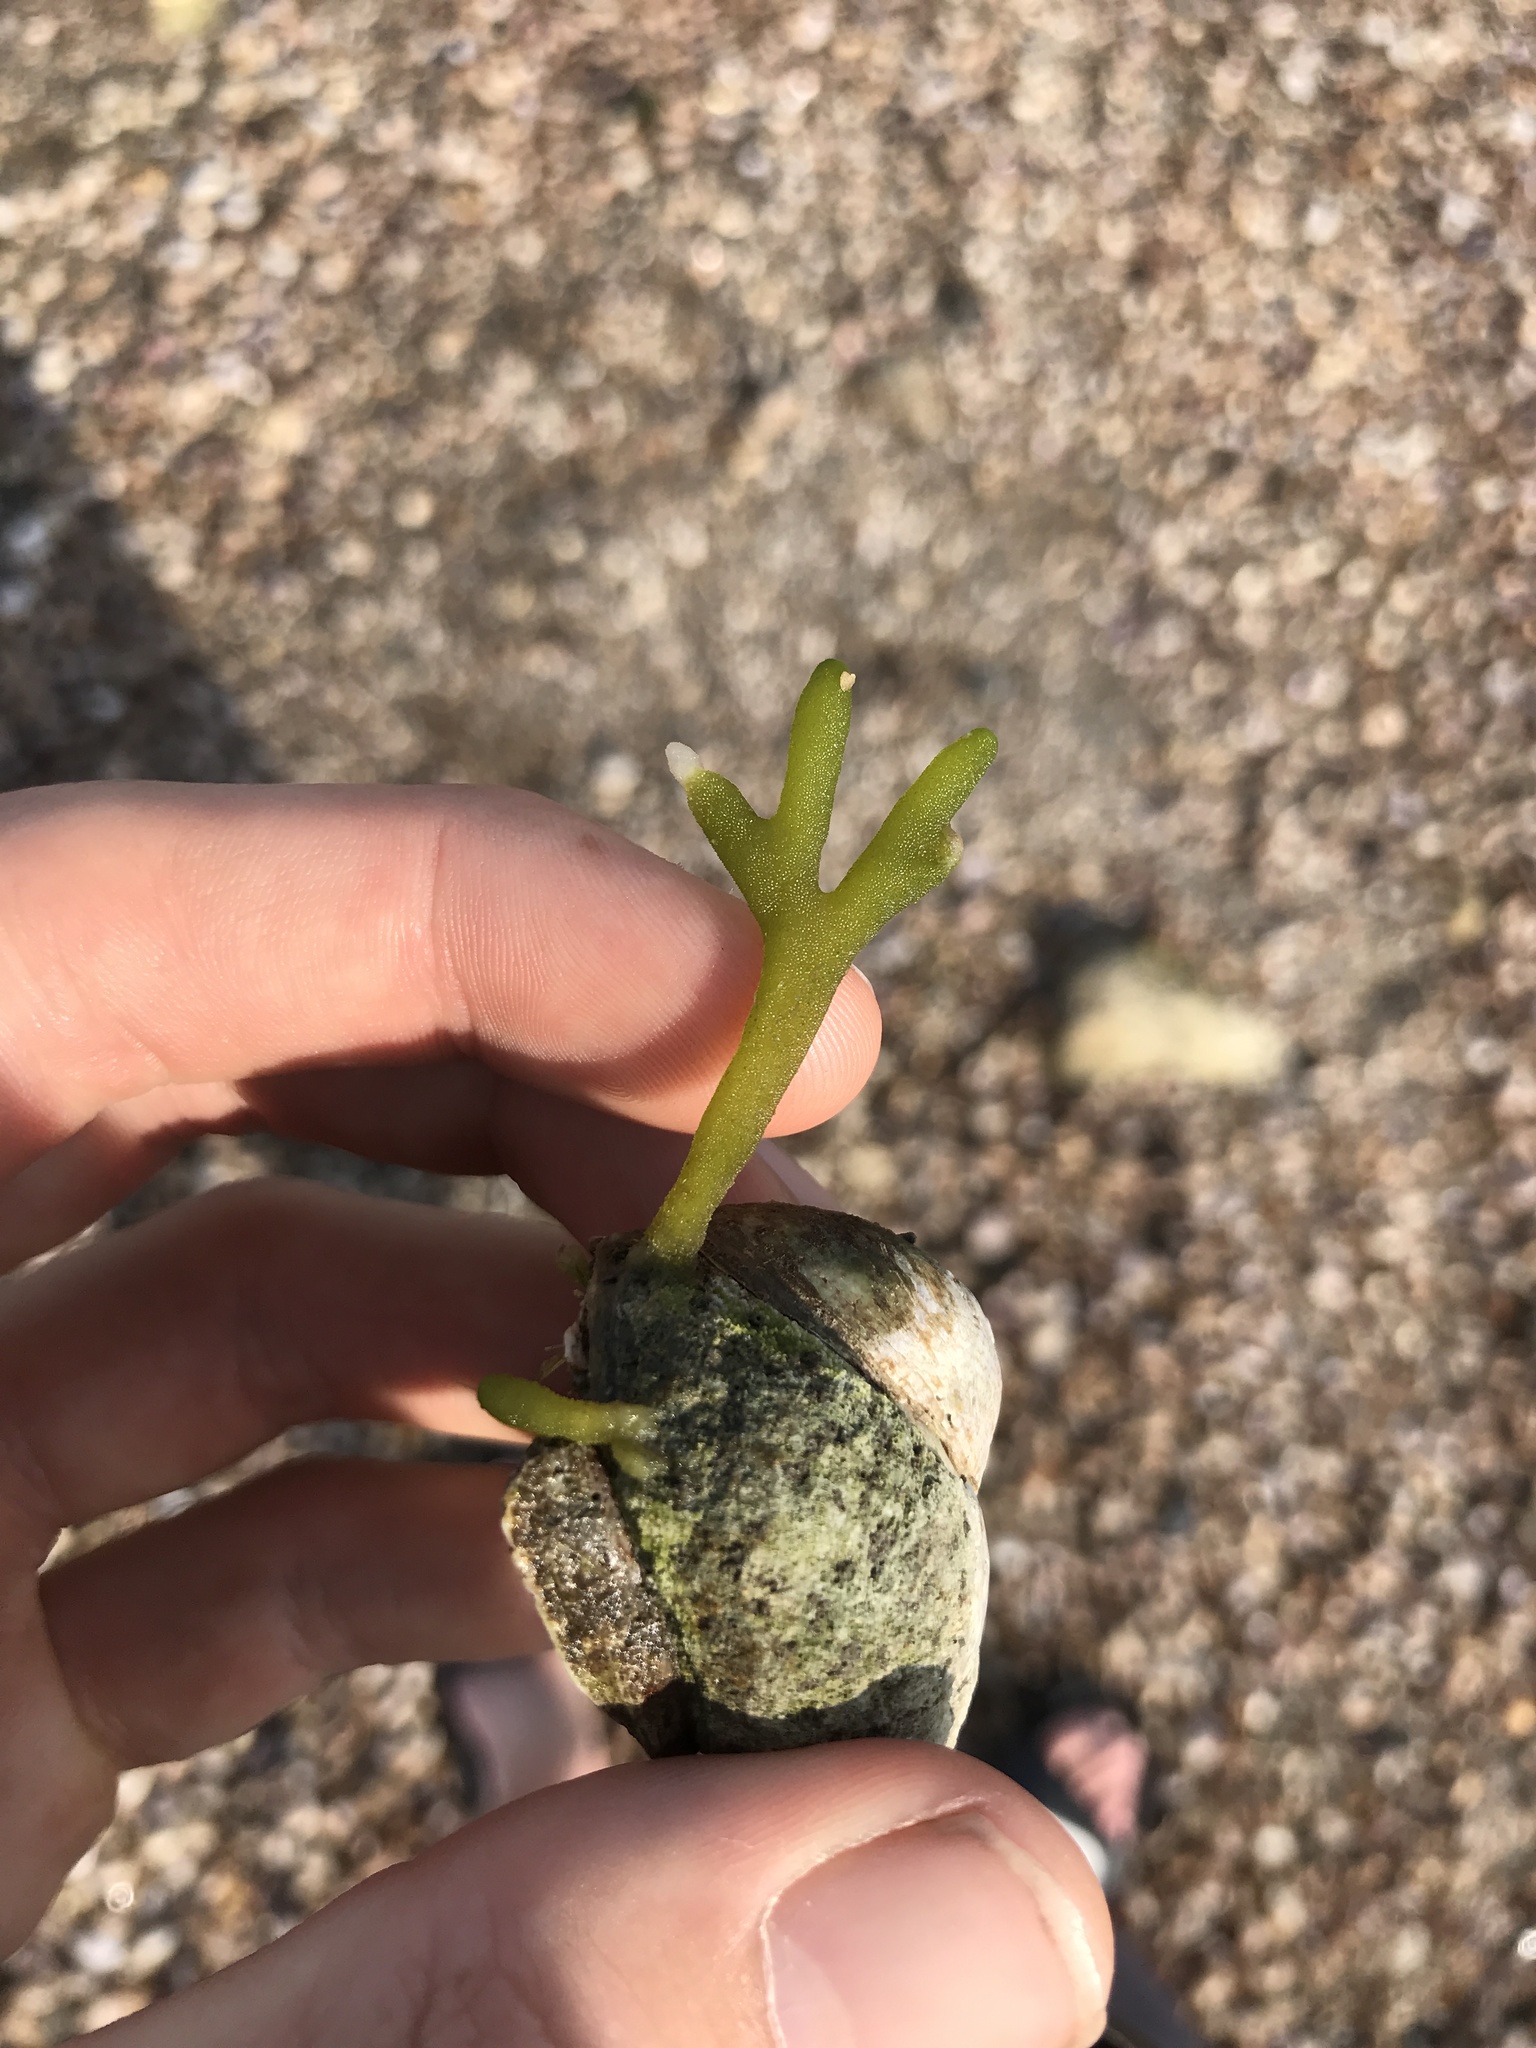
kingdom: Plantae
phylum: Chlorophyta
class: Ulvophyceae
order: Bryopsidales
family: Codiaceae
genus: Codium
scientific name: Codium fragile
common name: Dead man's fingers
